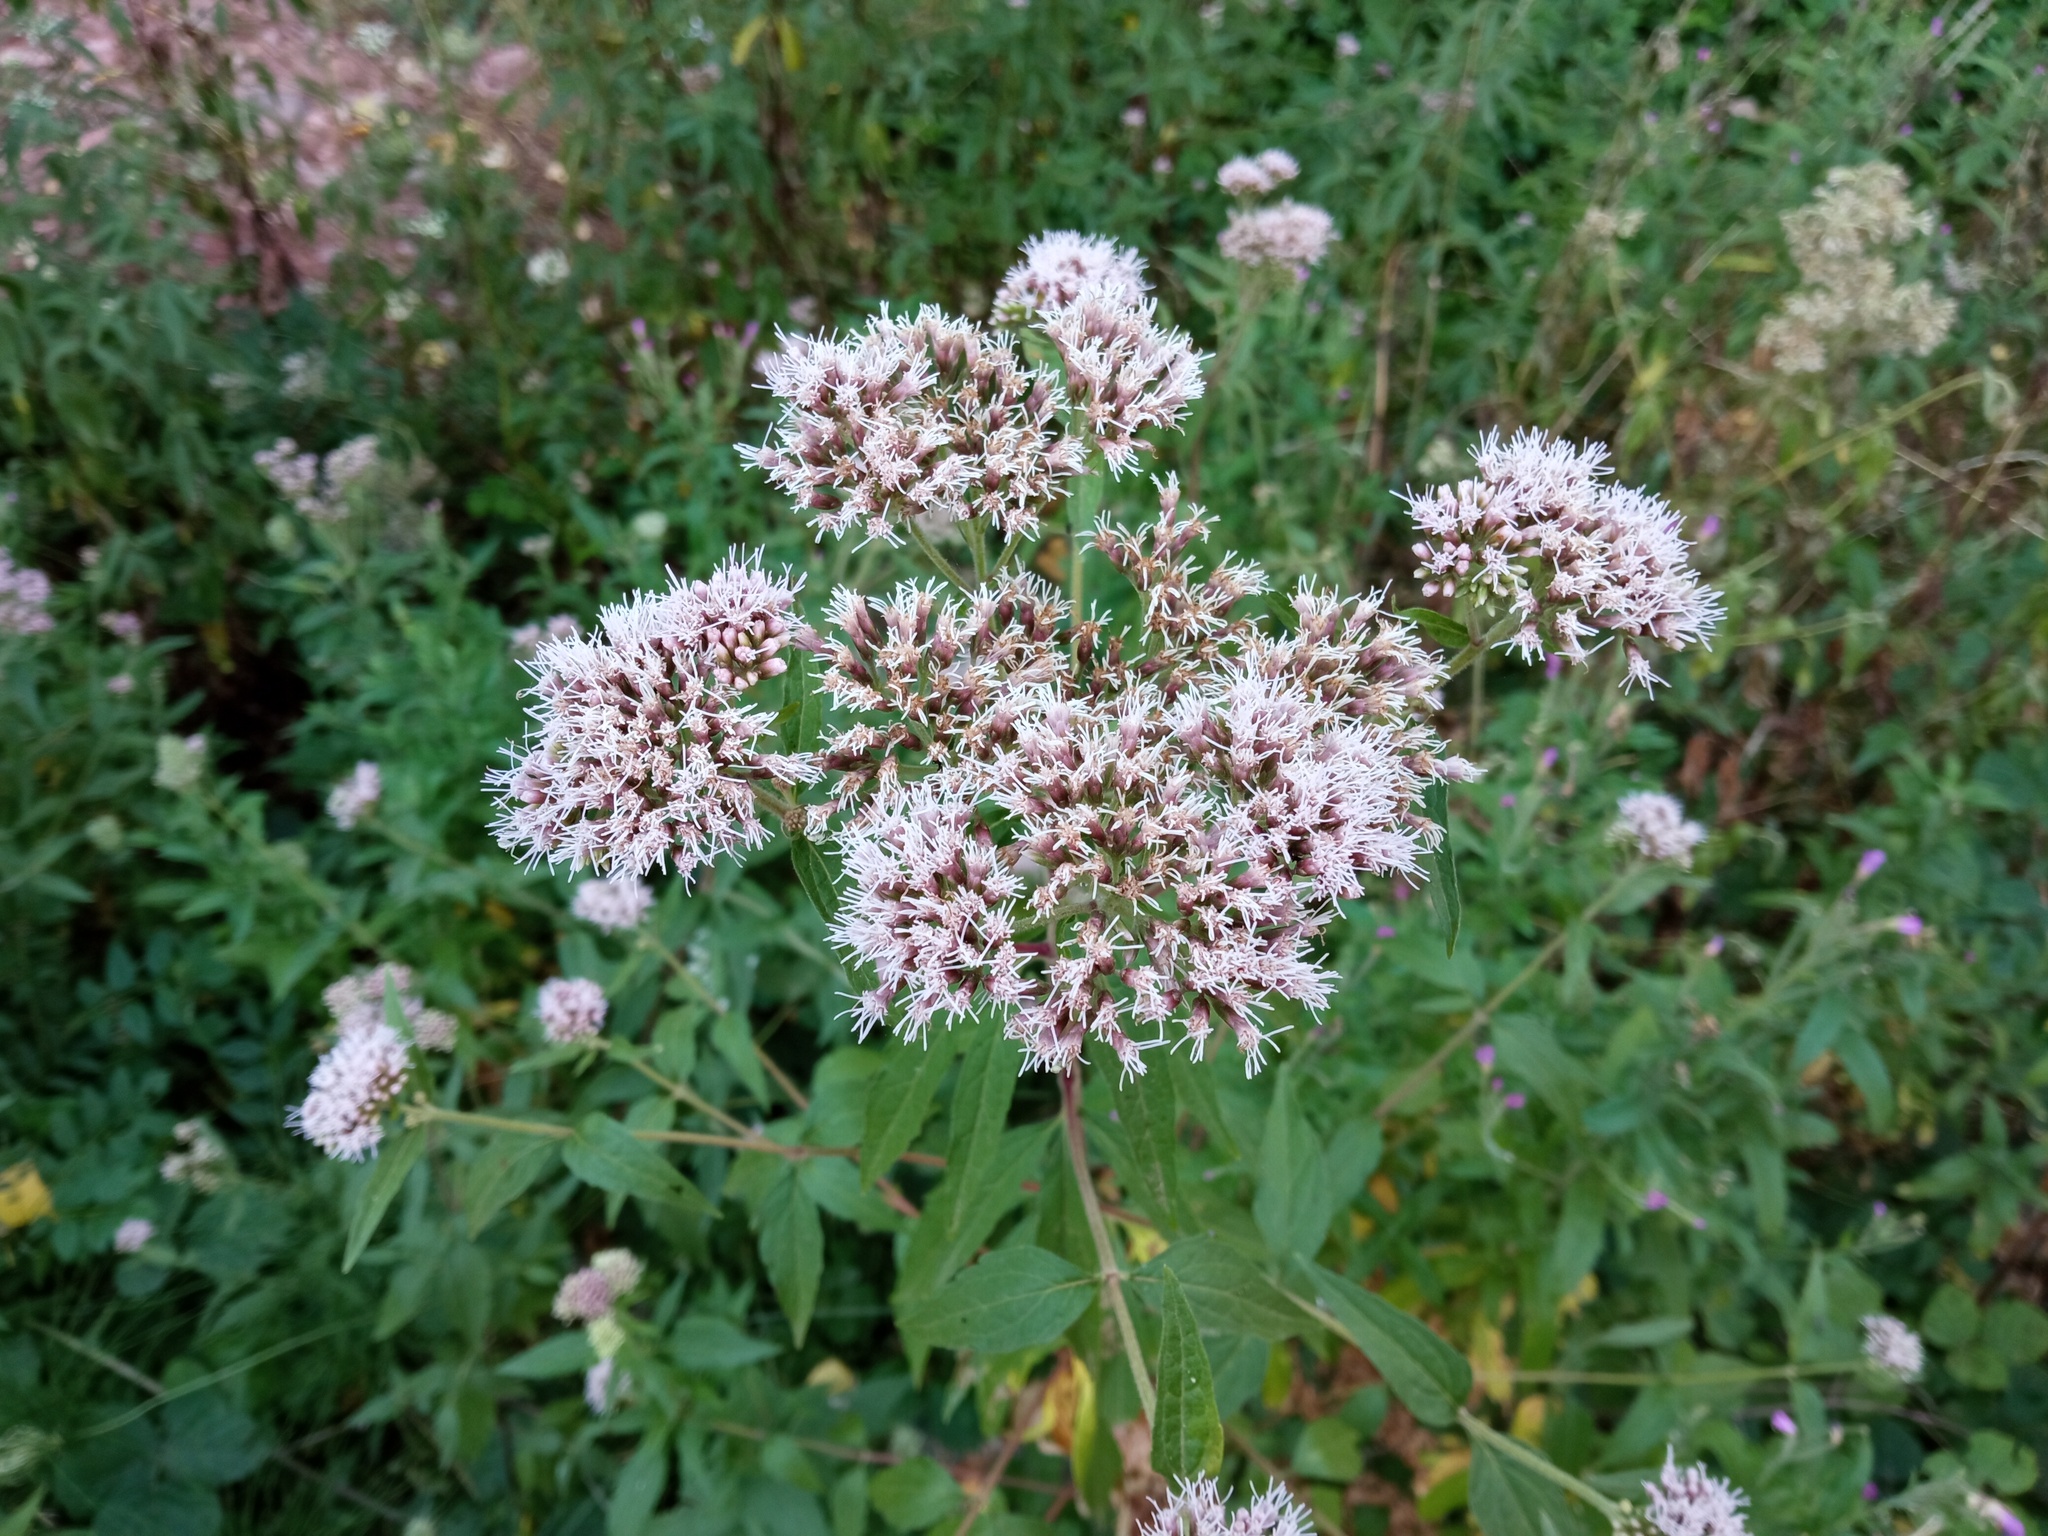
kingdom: Plantae
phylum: Tracheophyta
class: Magnoliopsida
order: Asterales
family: Asteraceae
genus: Eupatorium
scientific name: Eupatorium cannabinum
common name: Hemp-agrimony
